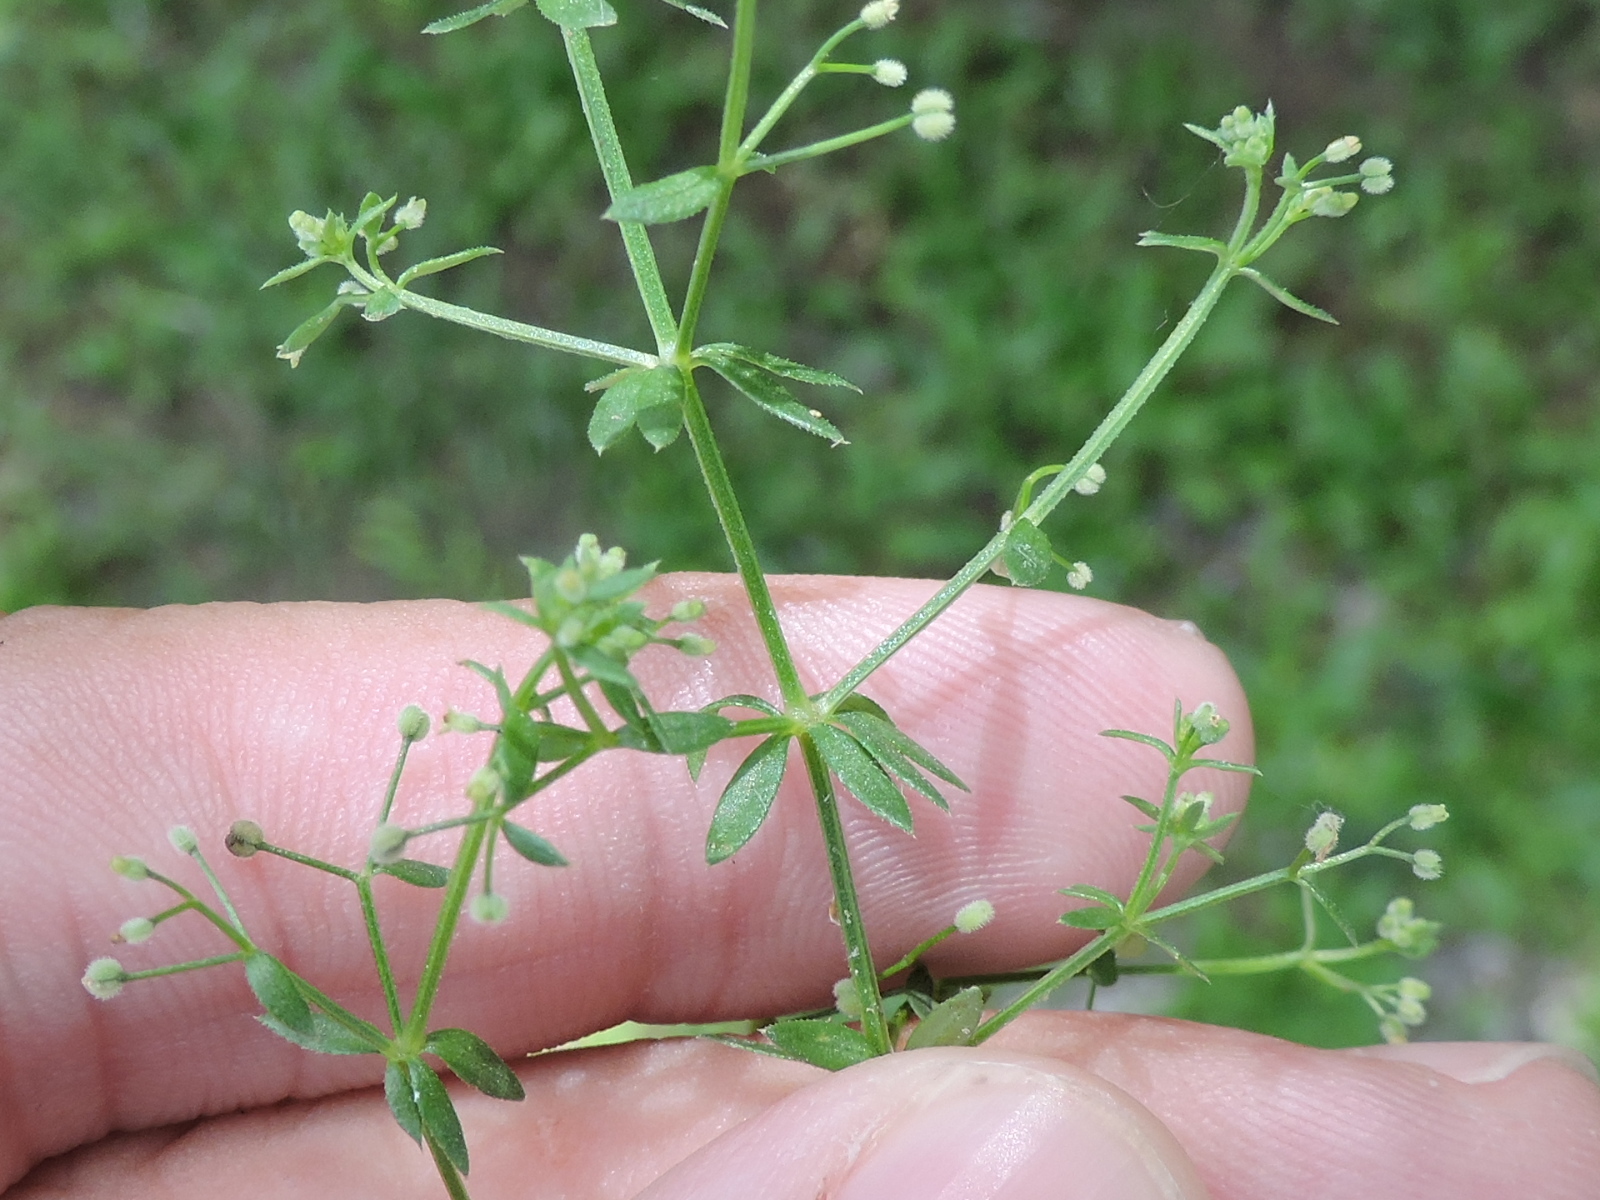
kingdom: Plantae
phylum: Tracheophyta
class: Magnoliopsida
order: Gentianales
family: Rubiaceae
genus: Galium
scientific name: Galium parisiense
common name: Wall bedstraw
